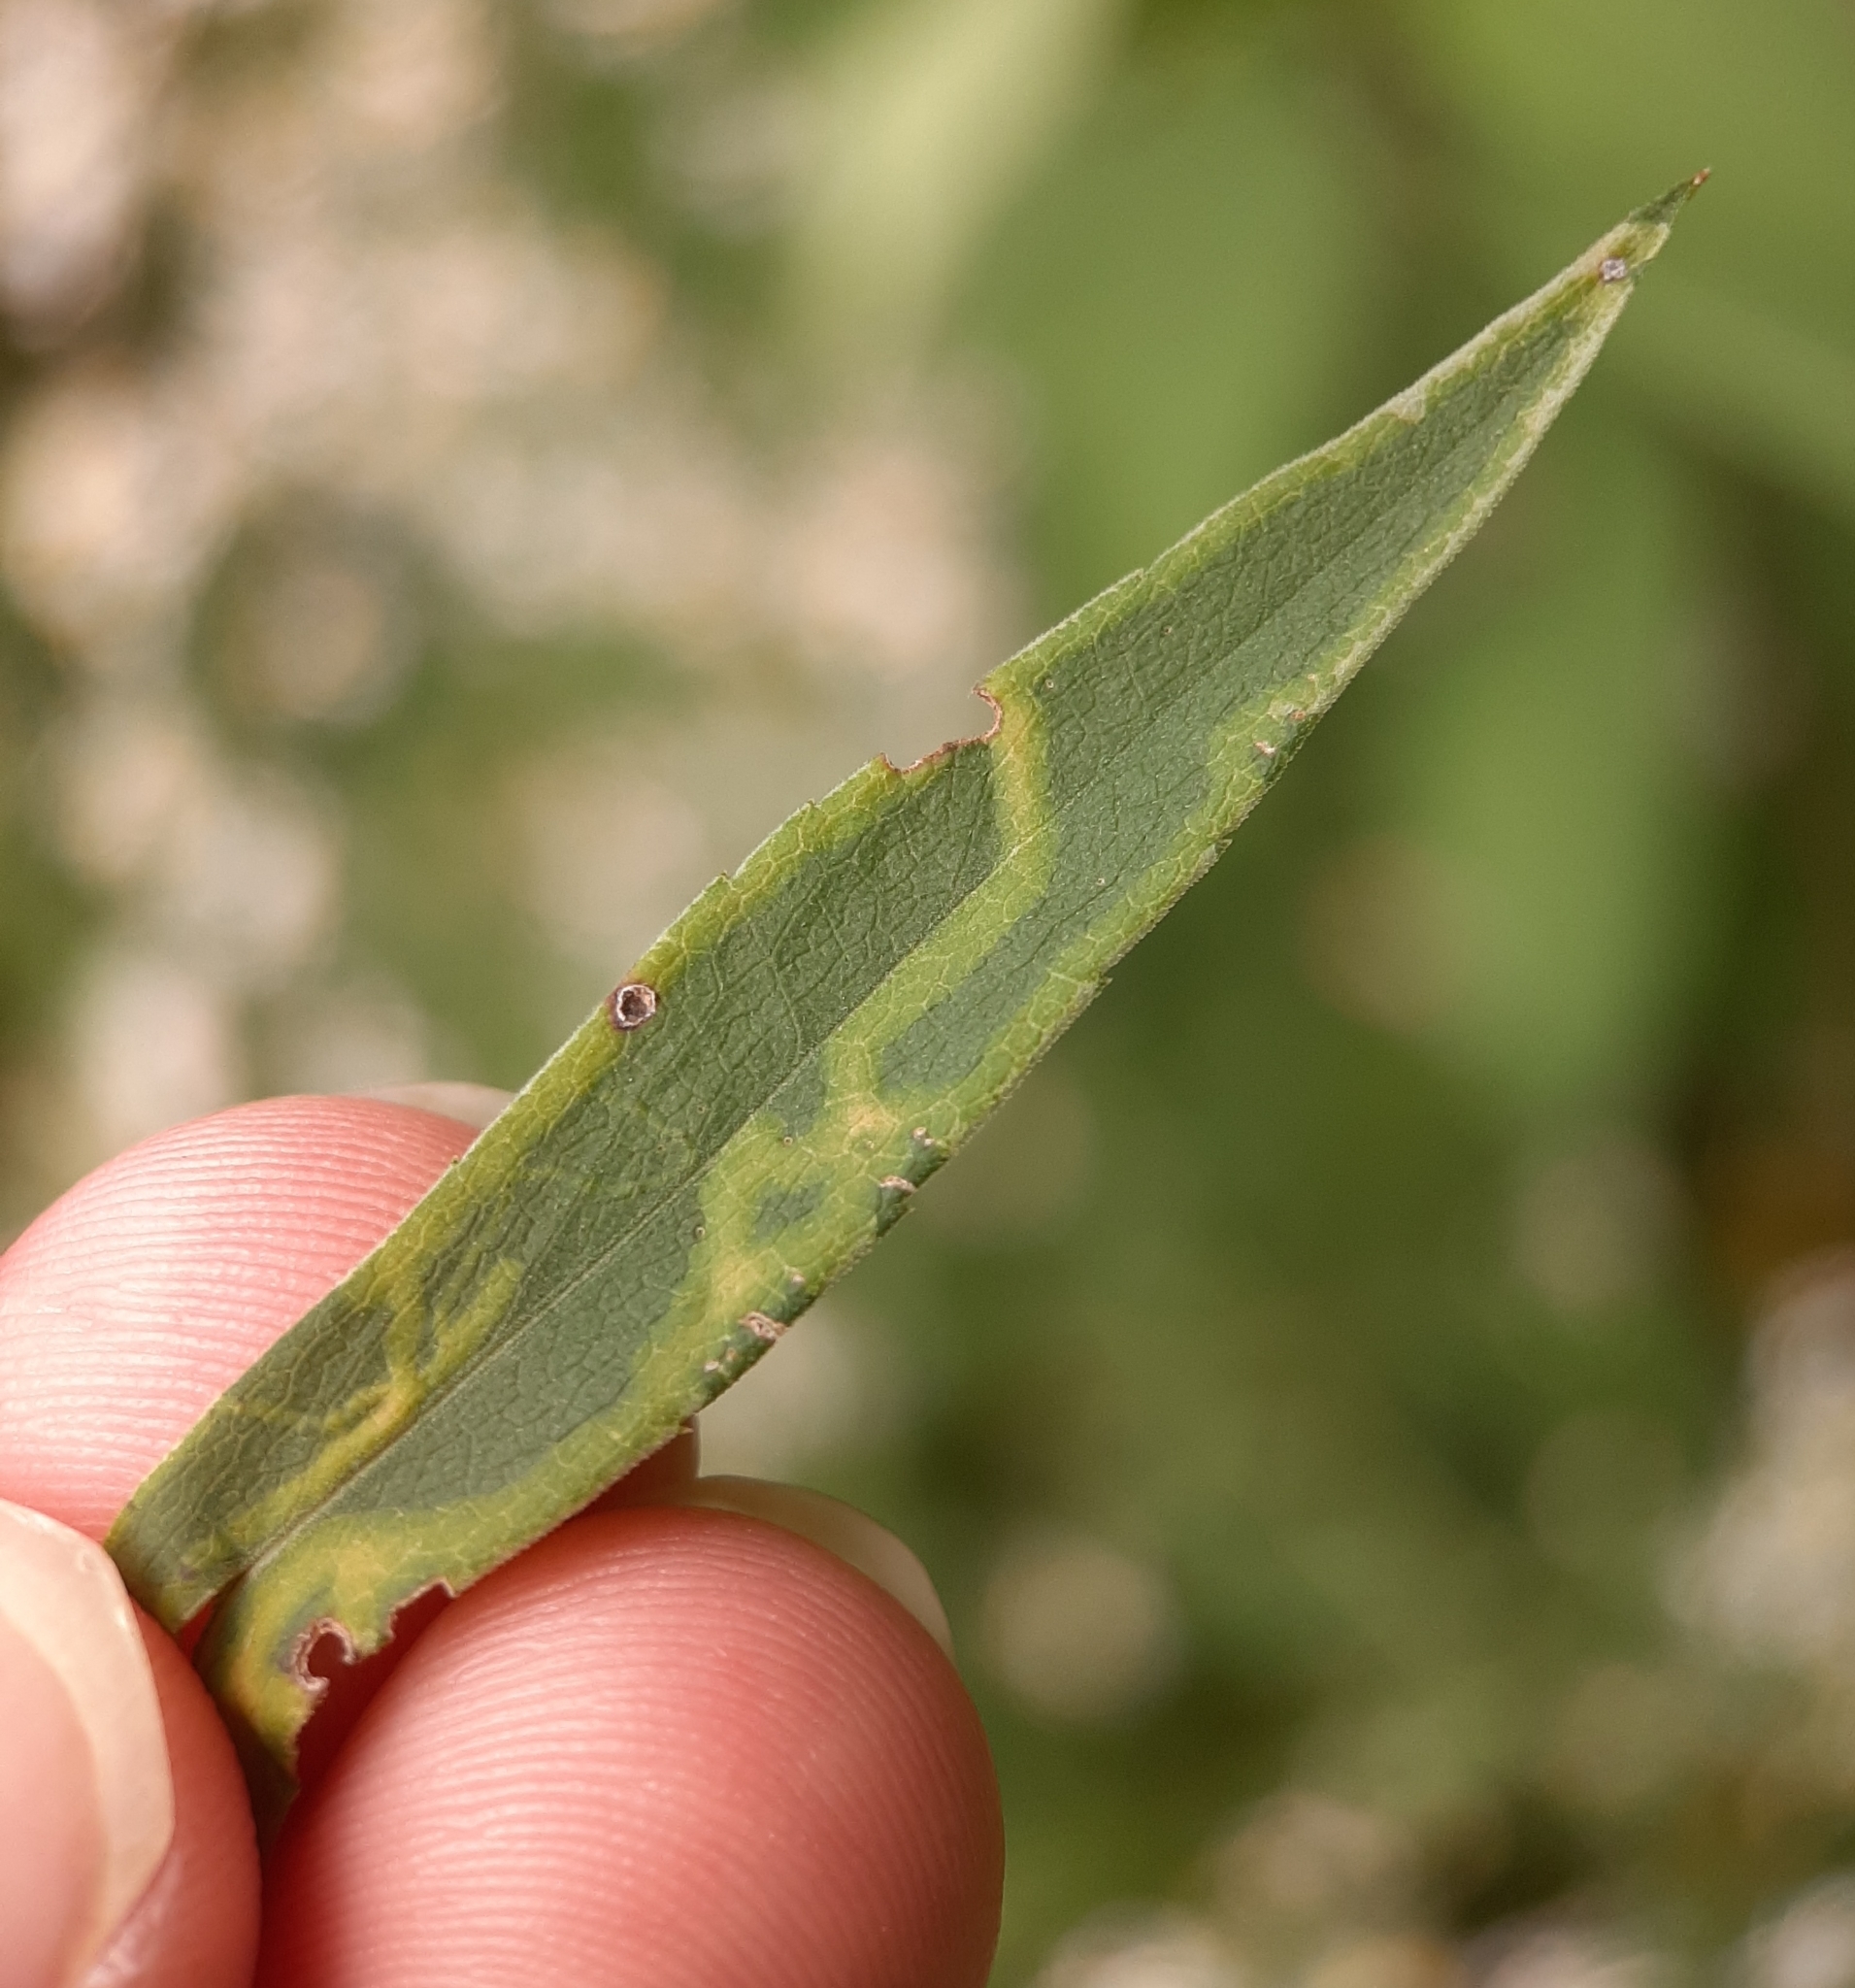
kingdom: Animalia
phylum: Arthropoda
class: Insecta
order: Diptera
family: Agromyzidae
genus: Ophiomyia
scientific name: Ophiomyia parda
